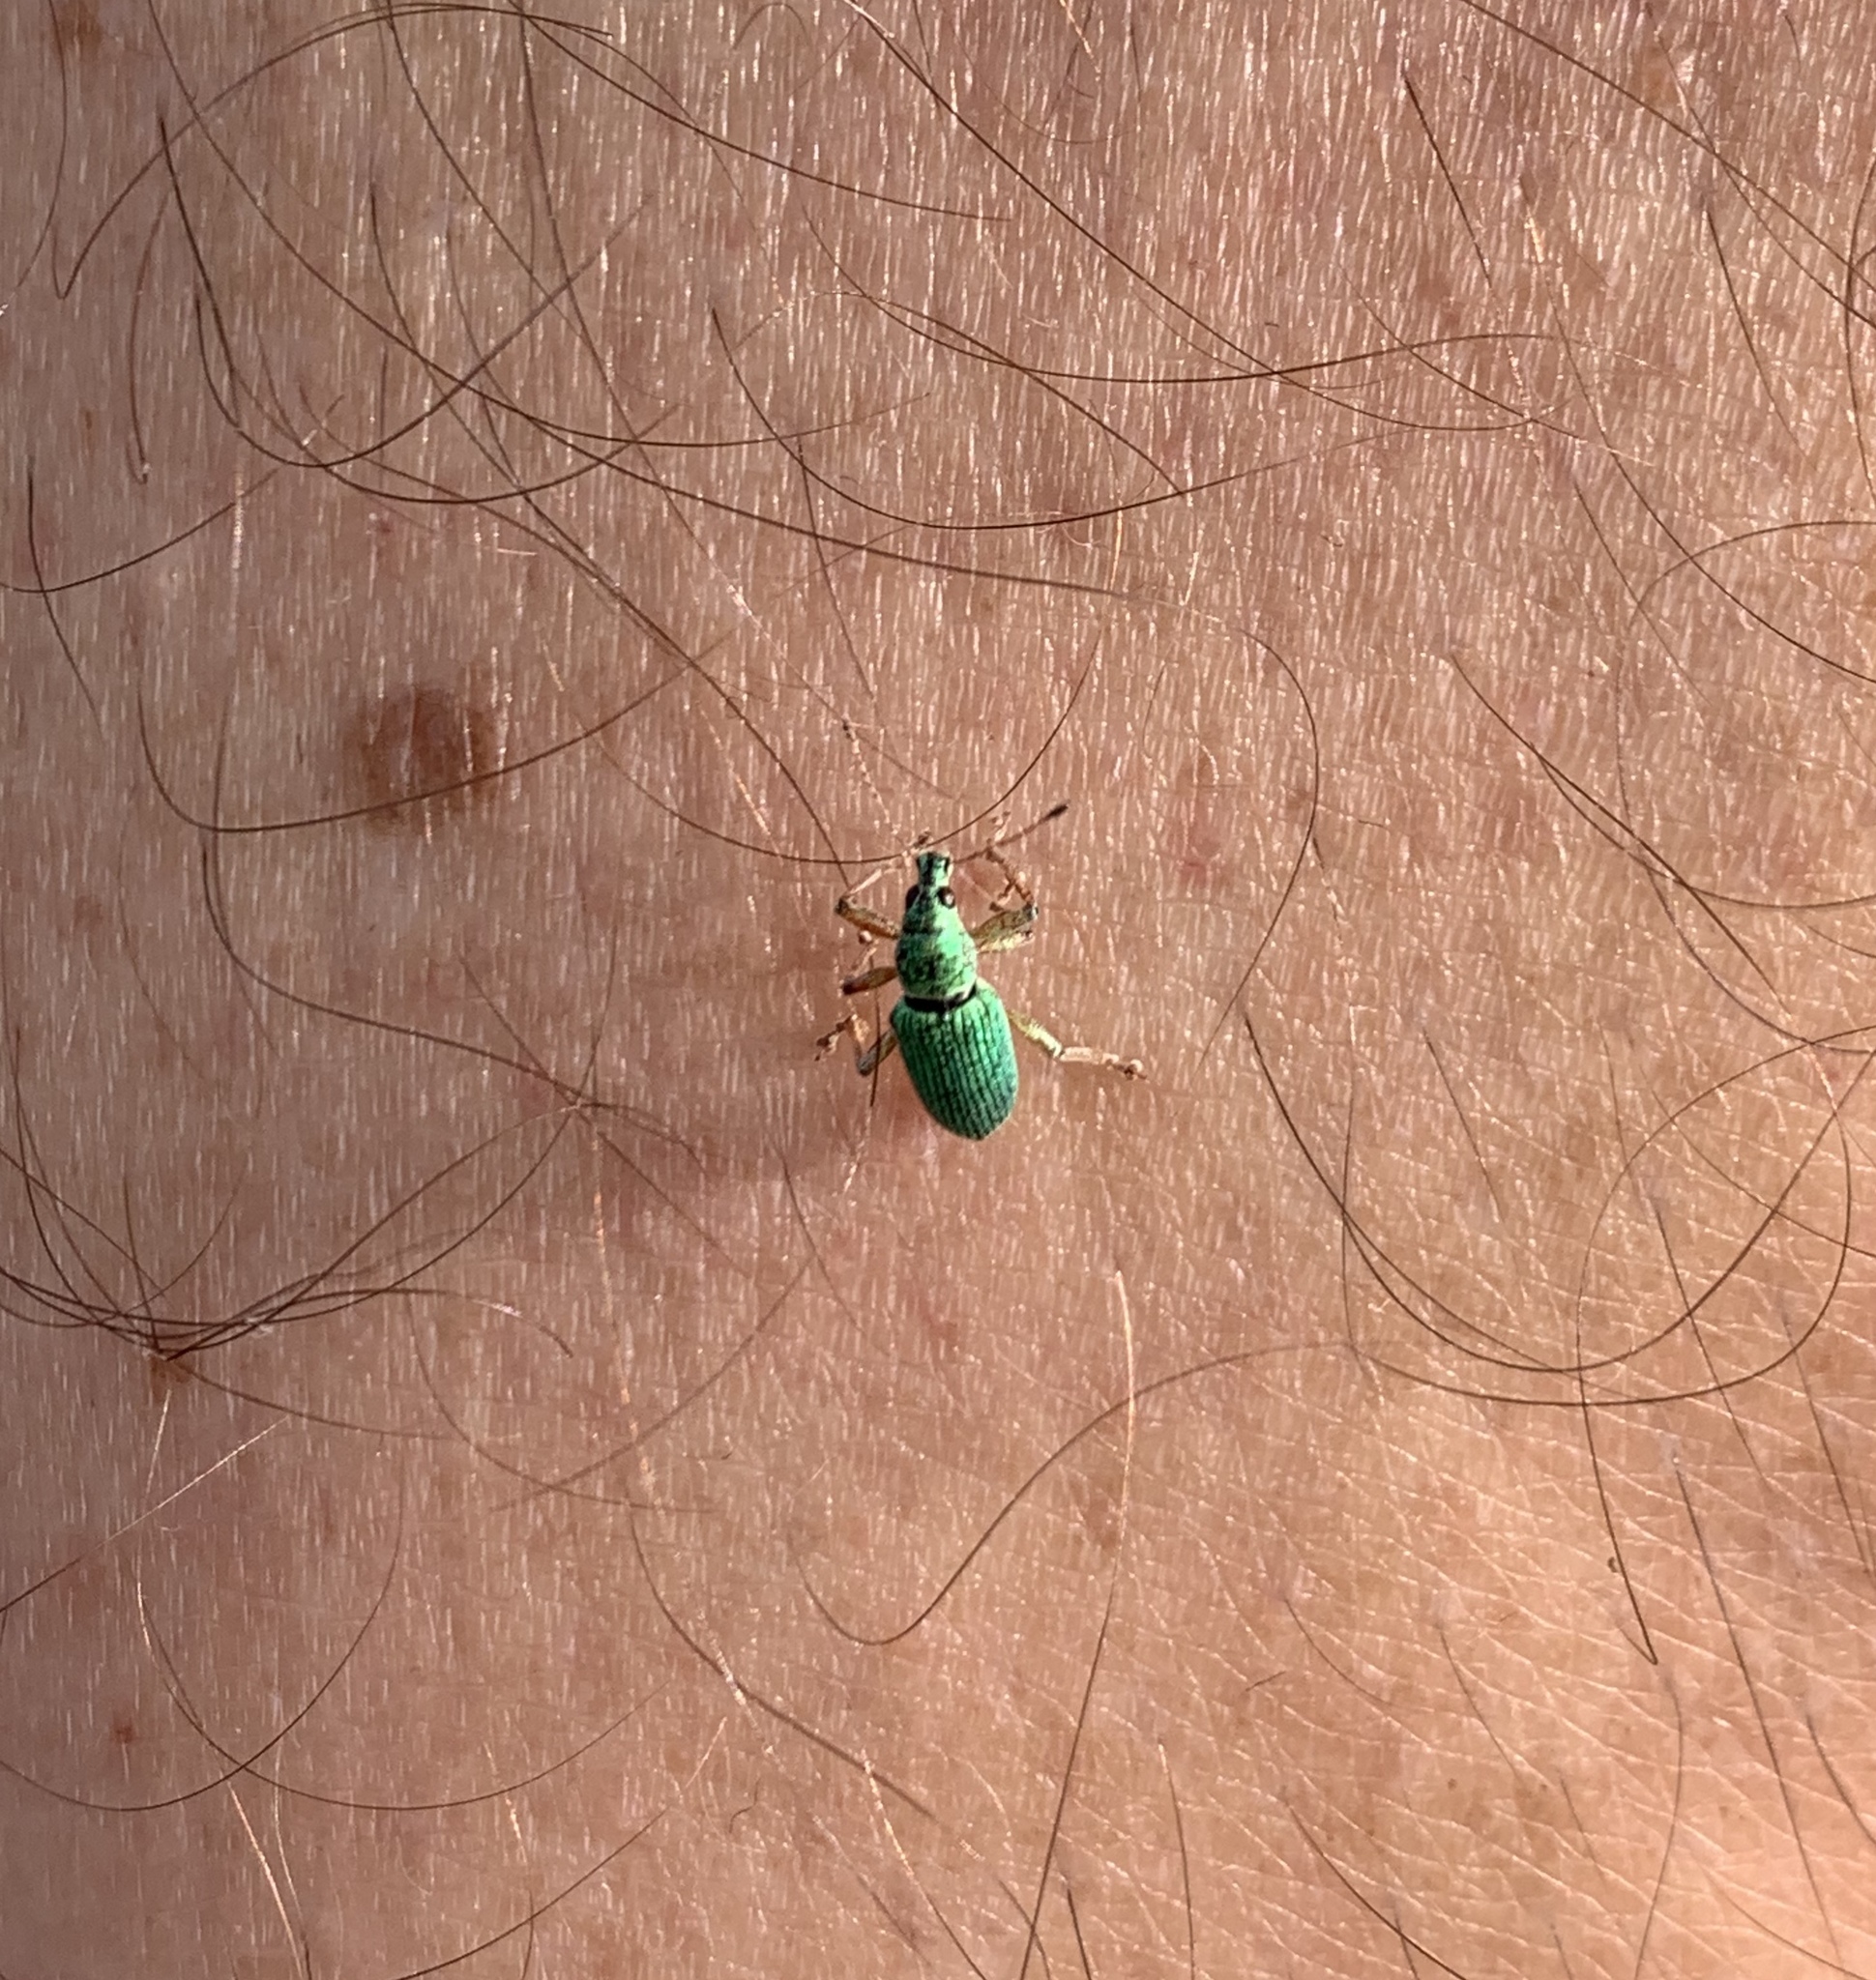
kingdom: Animalia
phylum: Arthropoda
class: Insecta
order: Coleoptera
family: Curculionidae
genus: Polydrusus
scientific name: Polydrusus formosus
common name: Weevil
